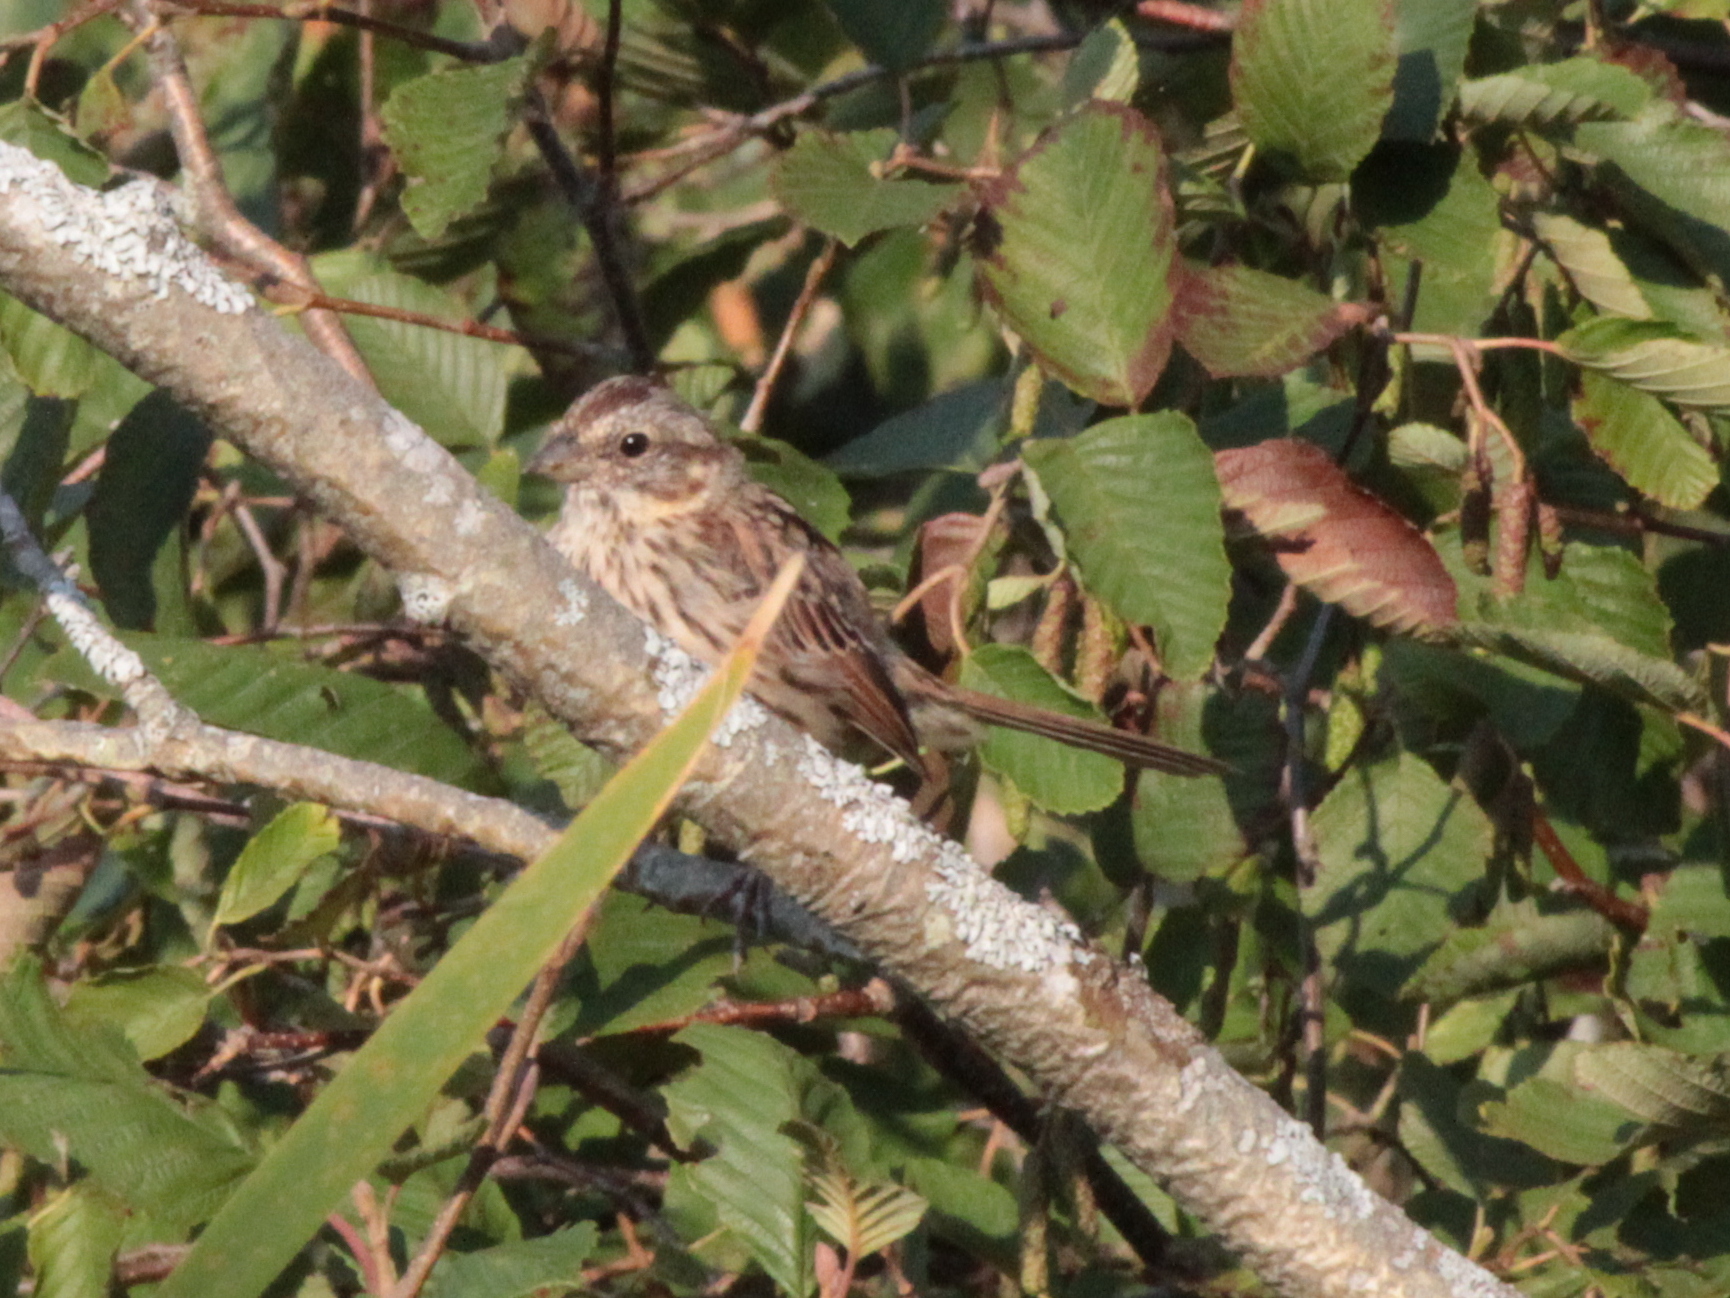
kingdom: Animalia
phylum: Chordata
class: Aves
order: Passeriformes
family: Passerellidae
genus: Melospiza
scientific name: Melospiza melodia
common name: Song sparrow
